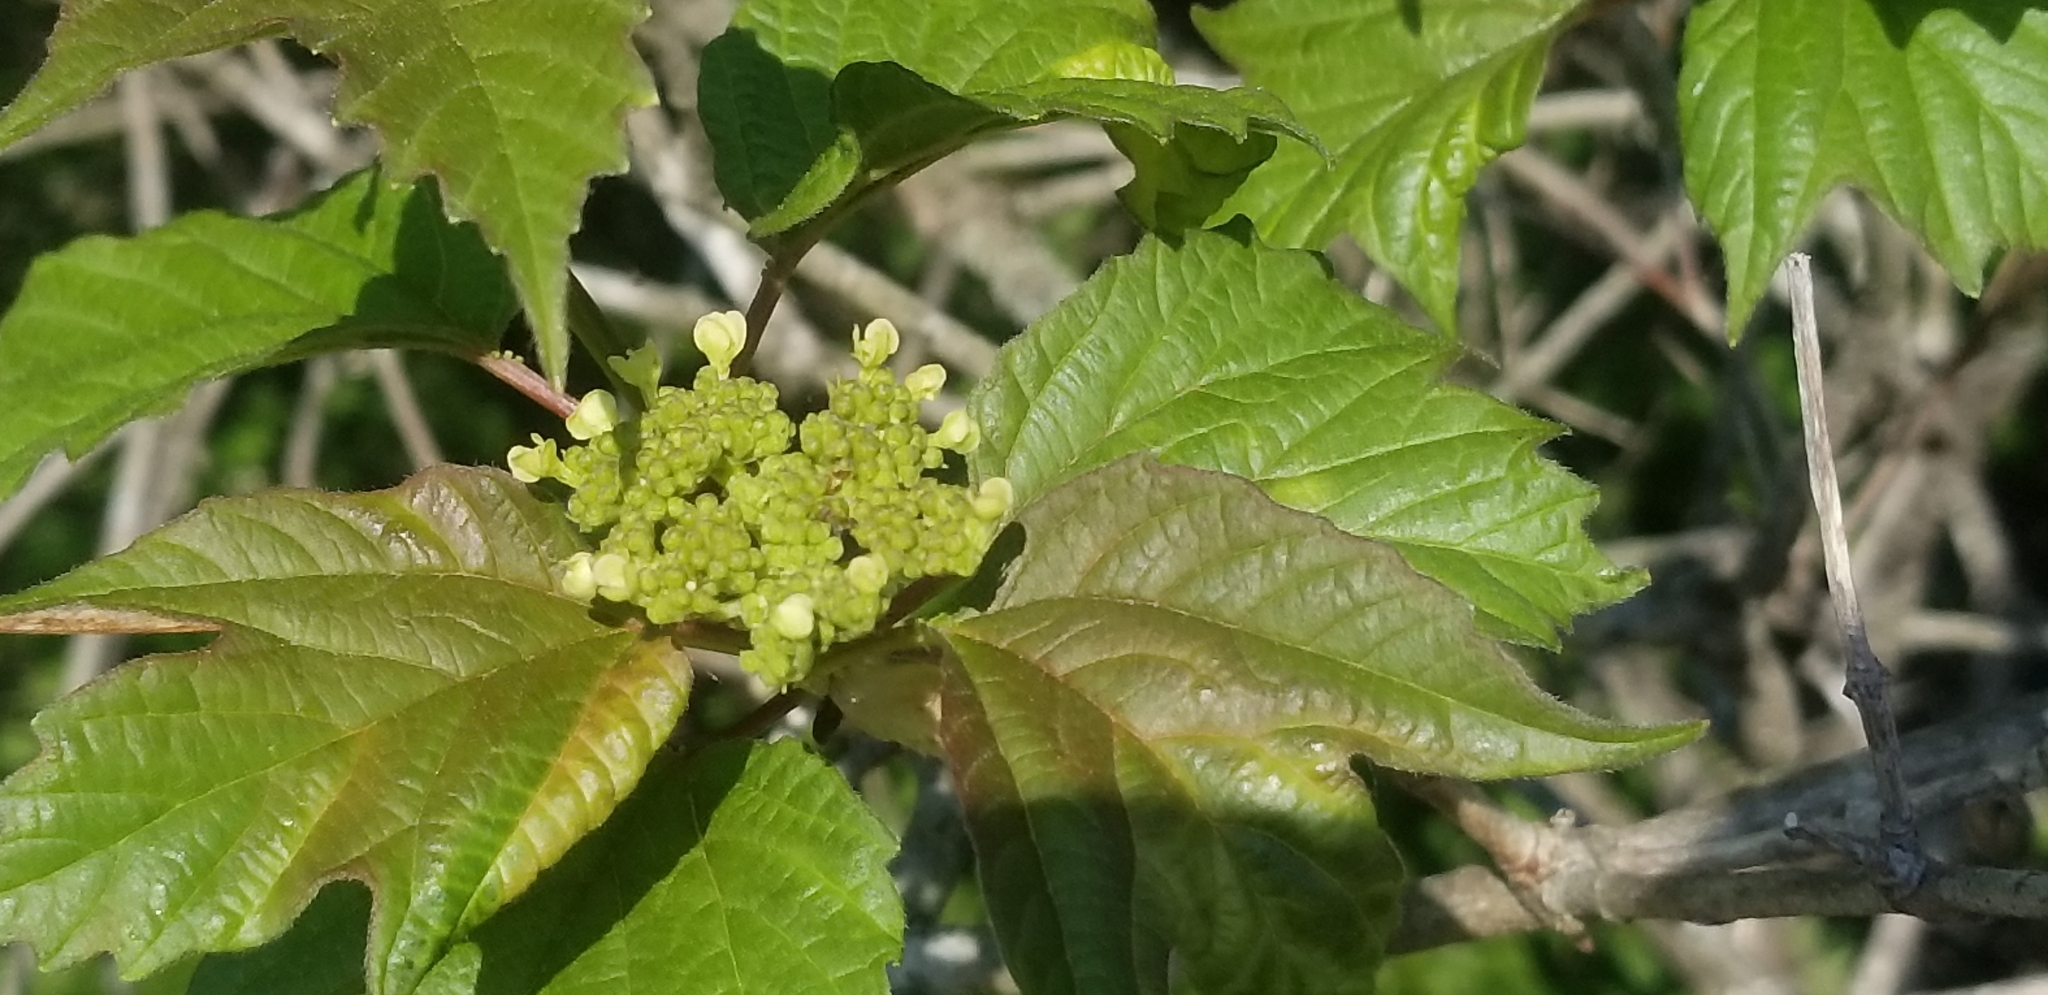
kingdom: Plantae
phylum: Tracheophyta
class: Magnoliopsida
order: Dipsacales
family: Viburnaceae
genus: Viburnum
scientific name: Viburnum opulus
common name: Guelder-rose
